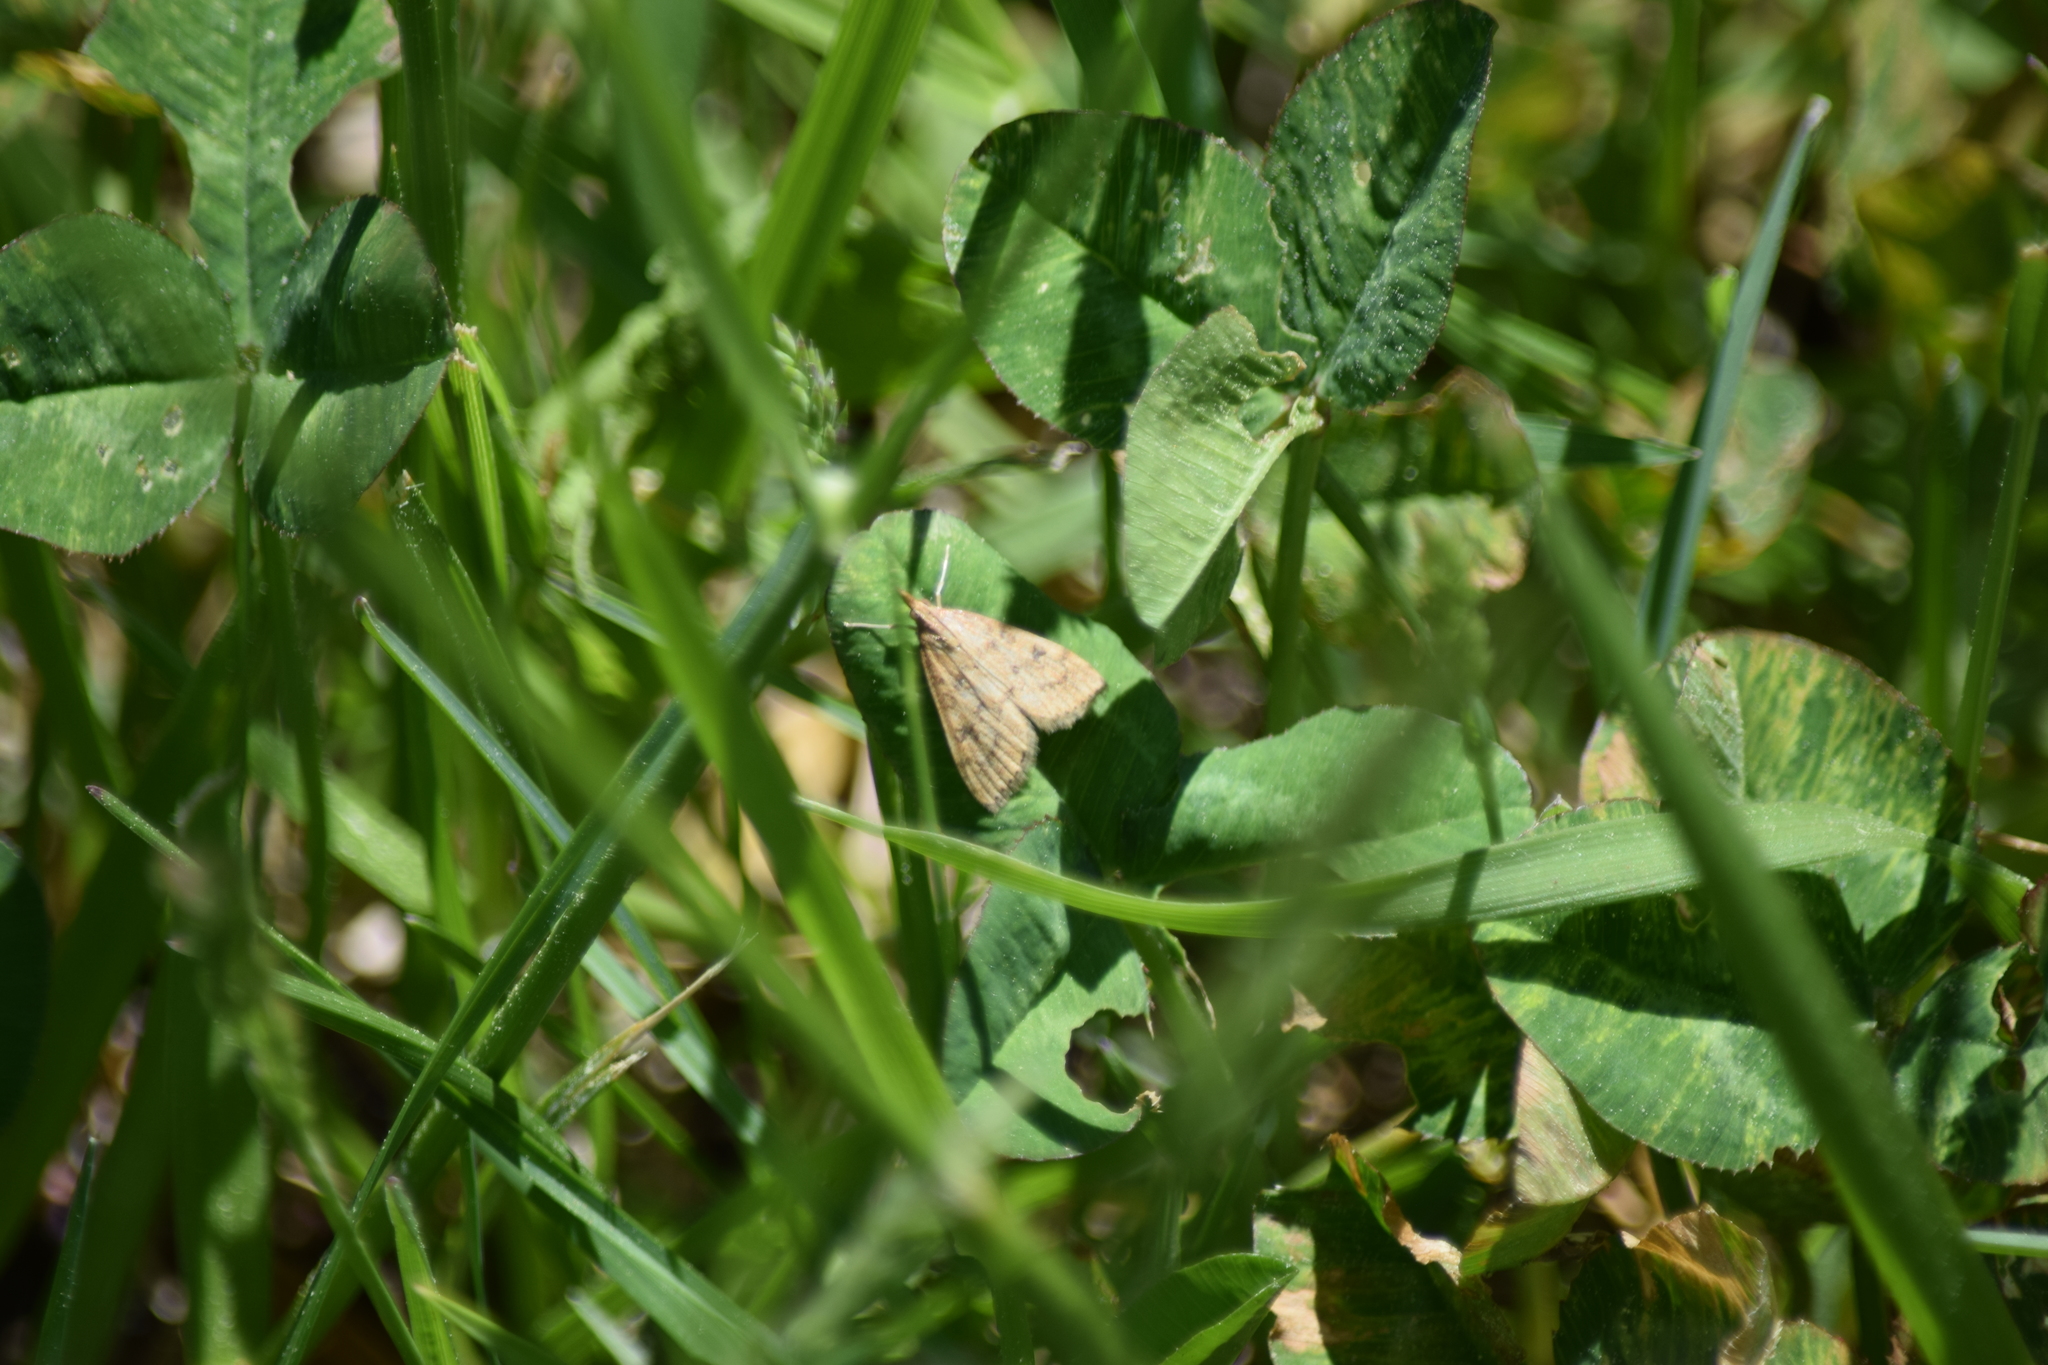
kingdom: Animalia
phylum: Arthropoda
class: Insecta
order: Lepidoptera
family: Crambidae
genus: Udea
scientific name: Udea rubigalis
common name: Celery leaftier moth
